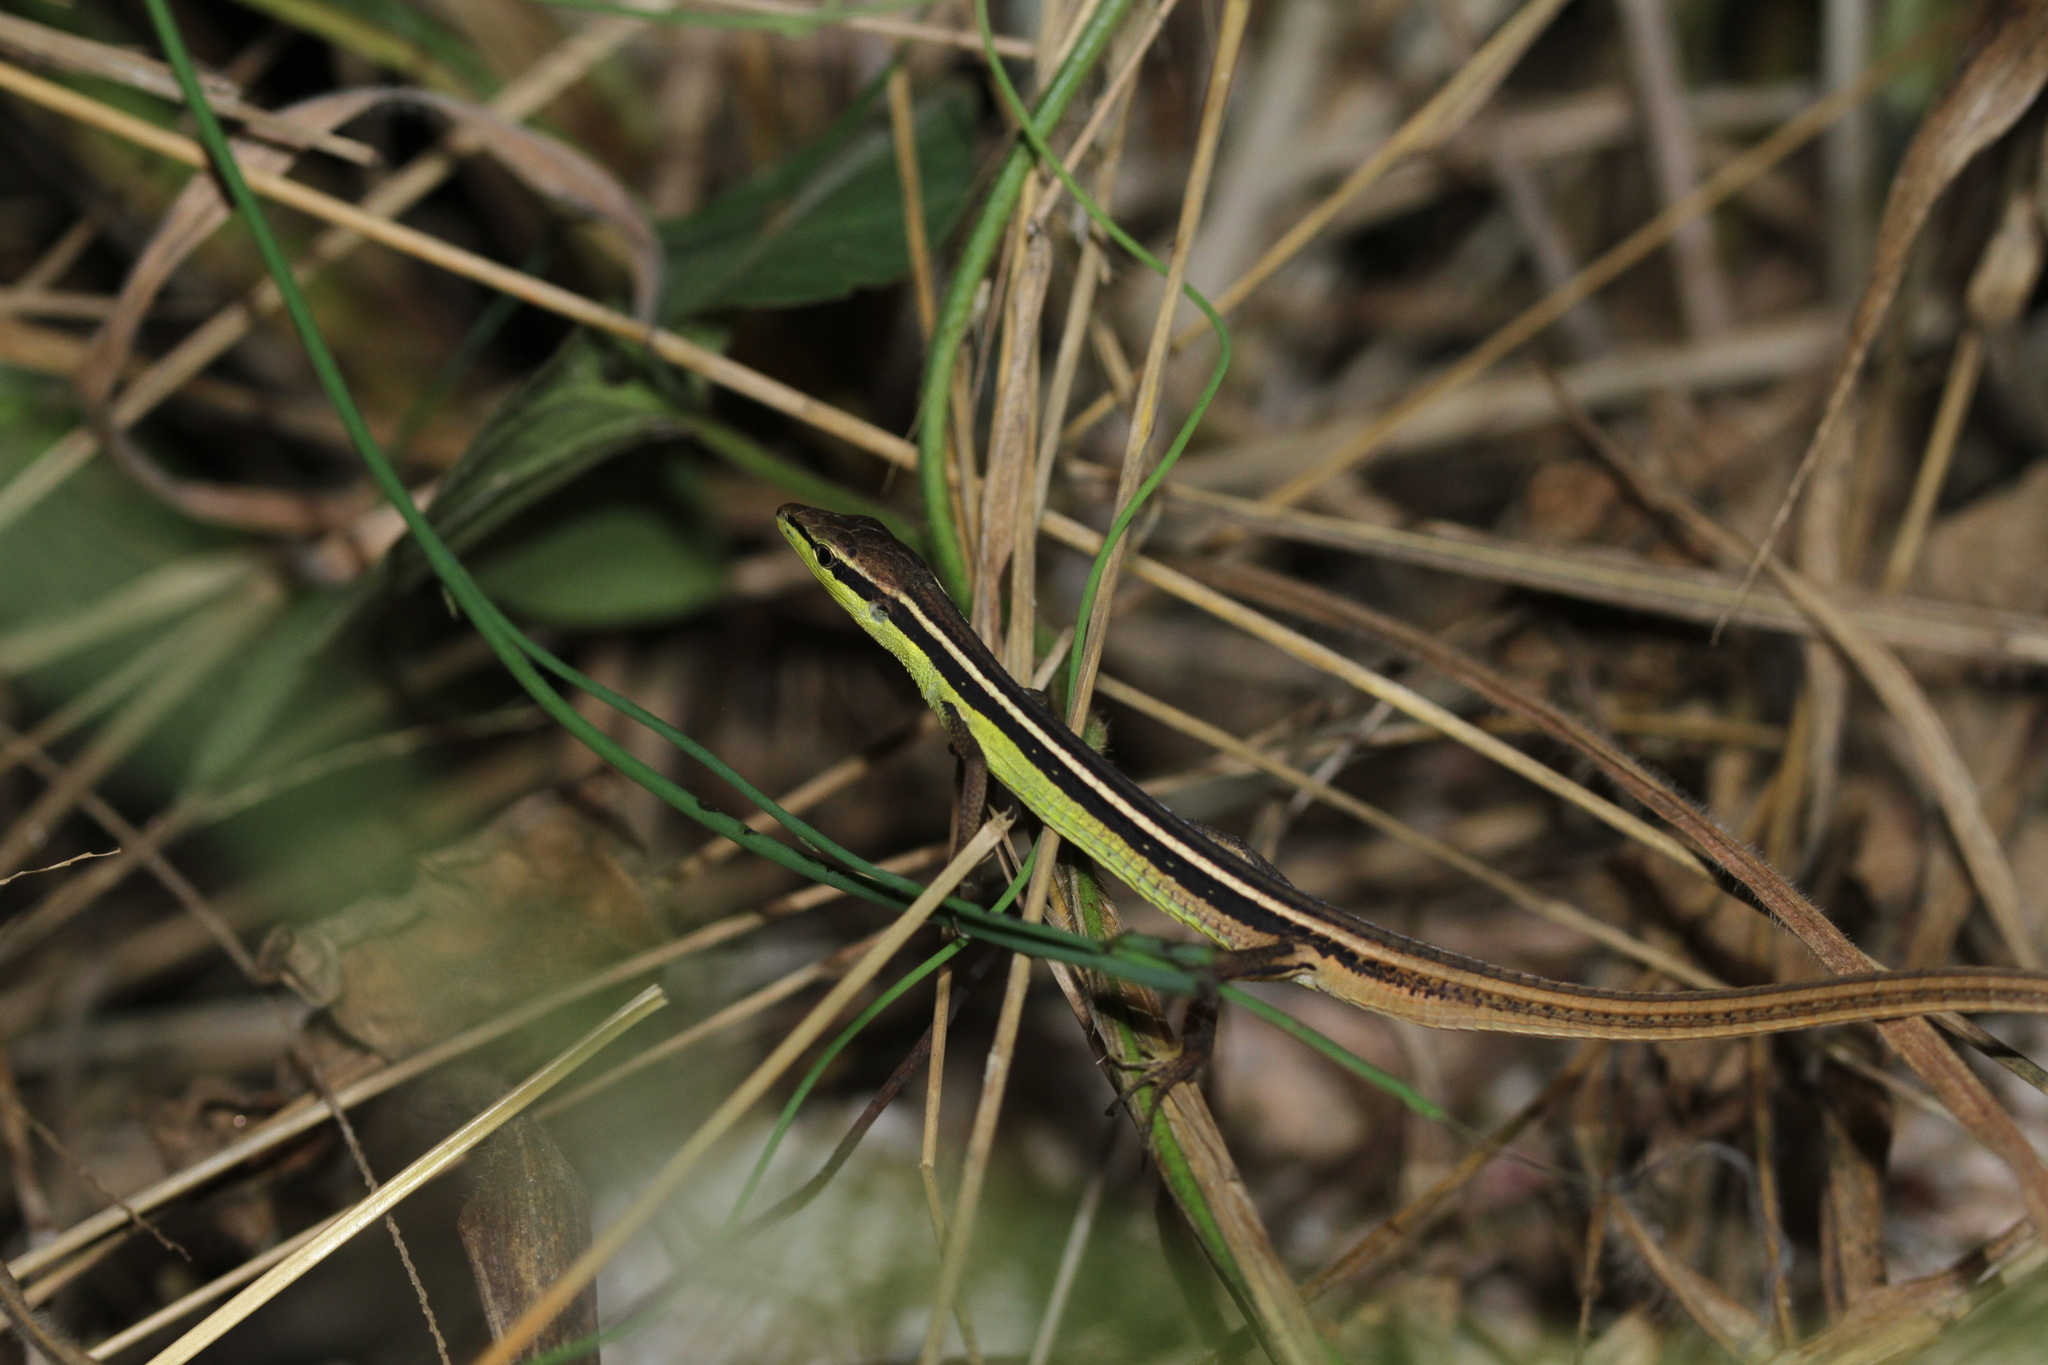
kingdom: Animalia
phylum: Chordata
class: Squamata
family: Lacertidae
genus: Takydromus
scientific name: Takydromus sexlineatus
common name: Asian grass lizard
